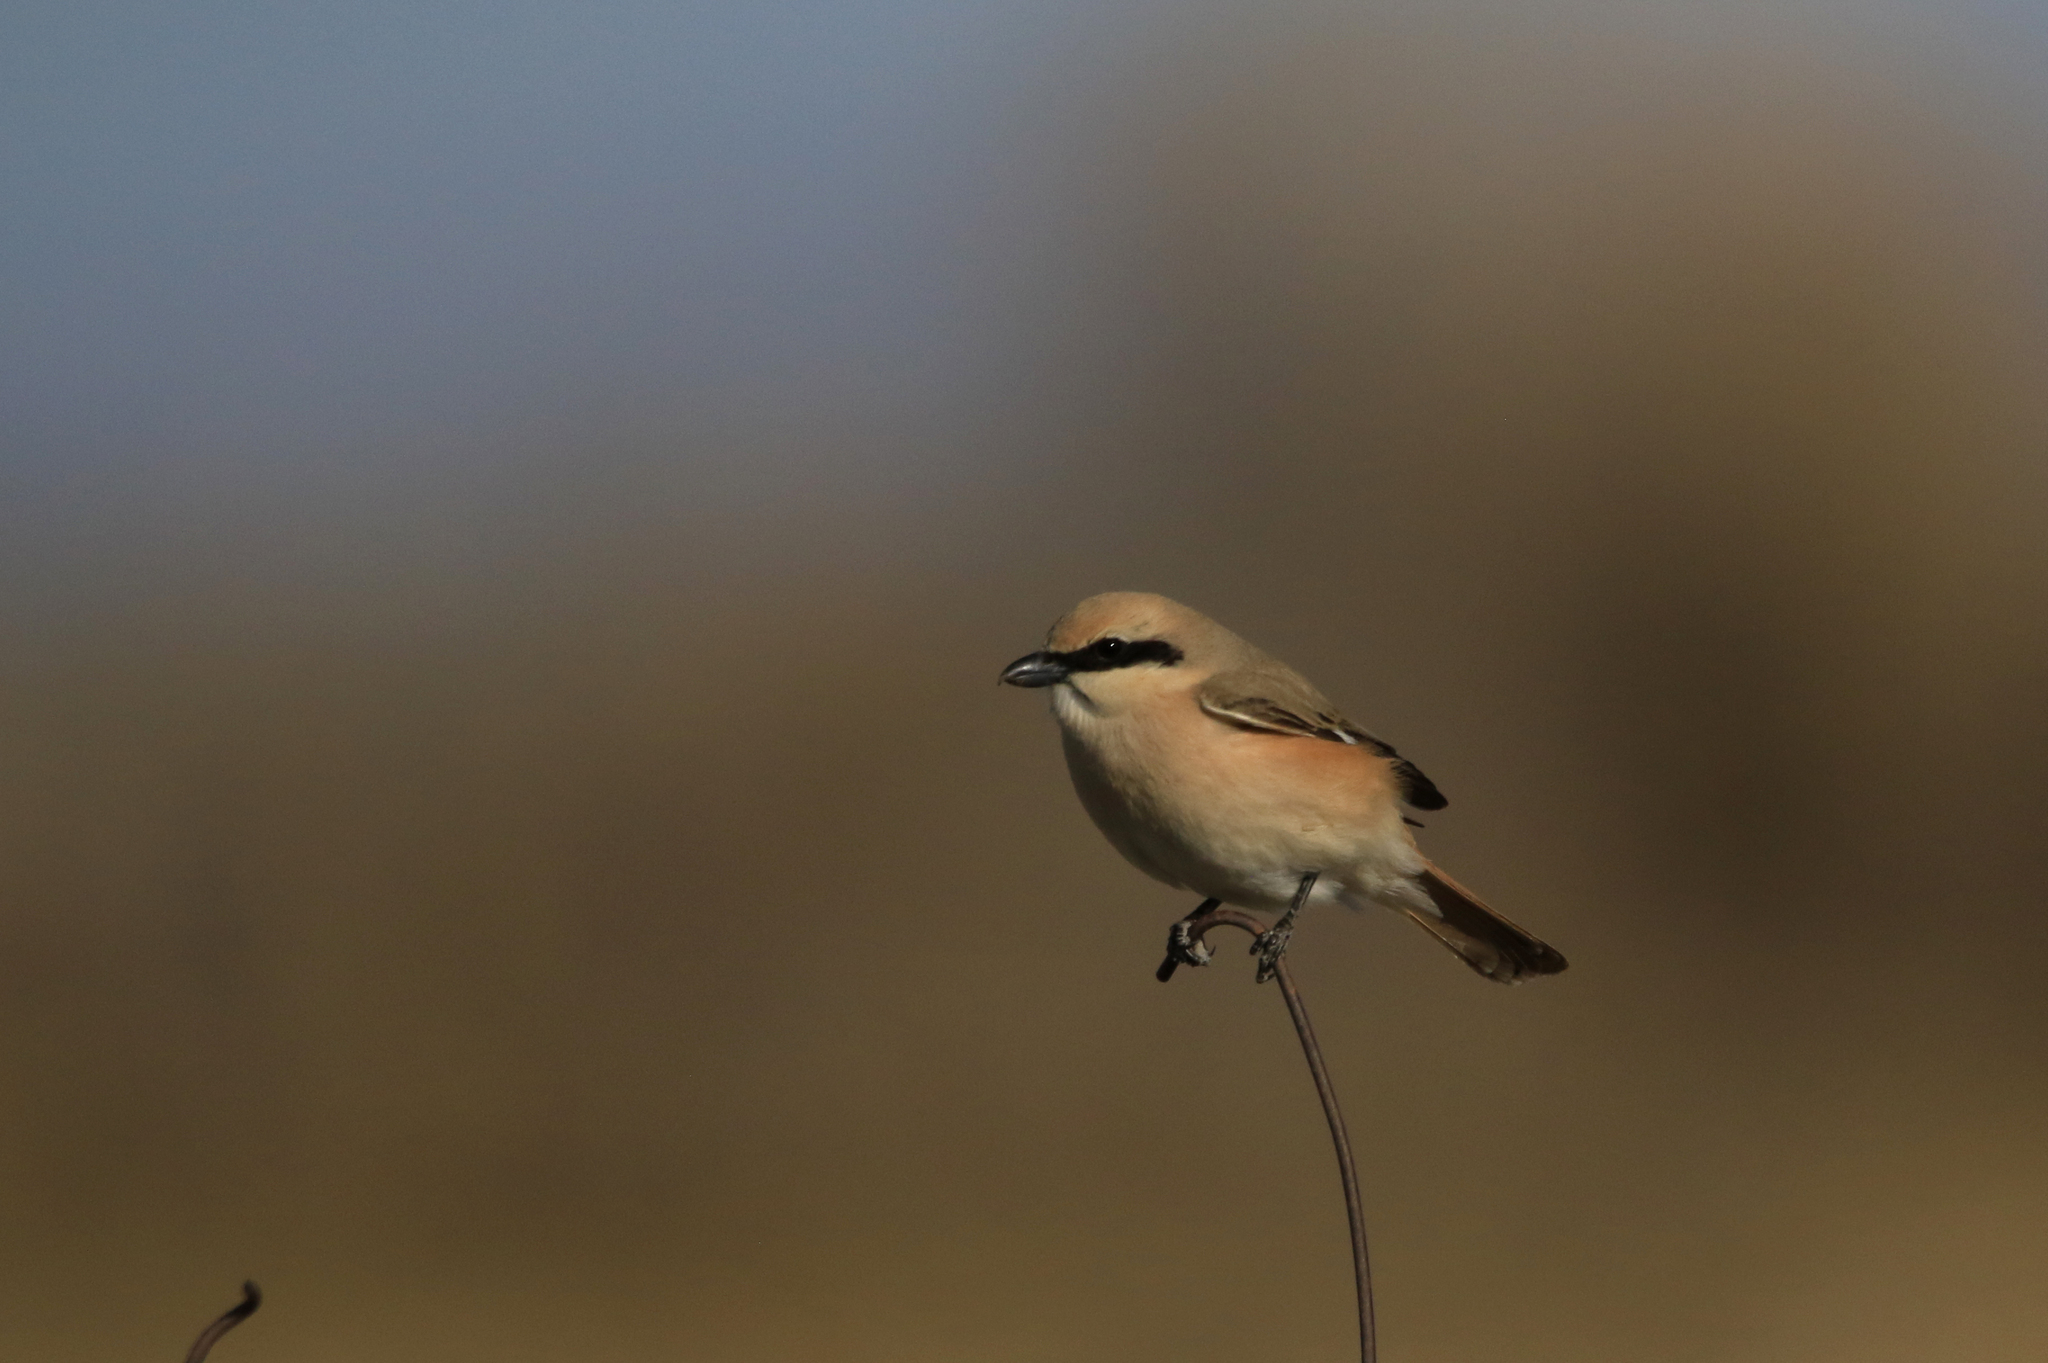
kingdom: Animalia
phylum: Chordata
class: Aves
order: Passeriformes
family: Laniidae
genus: Lanius
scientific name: Lanius isabellinus
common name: Isabelline shrike
